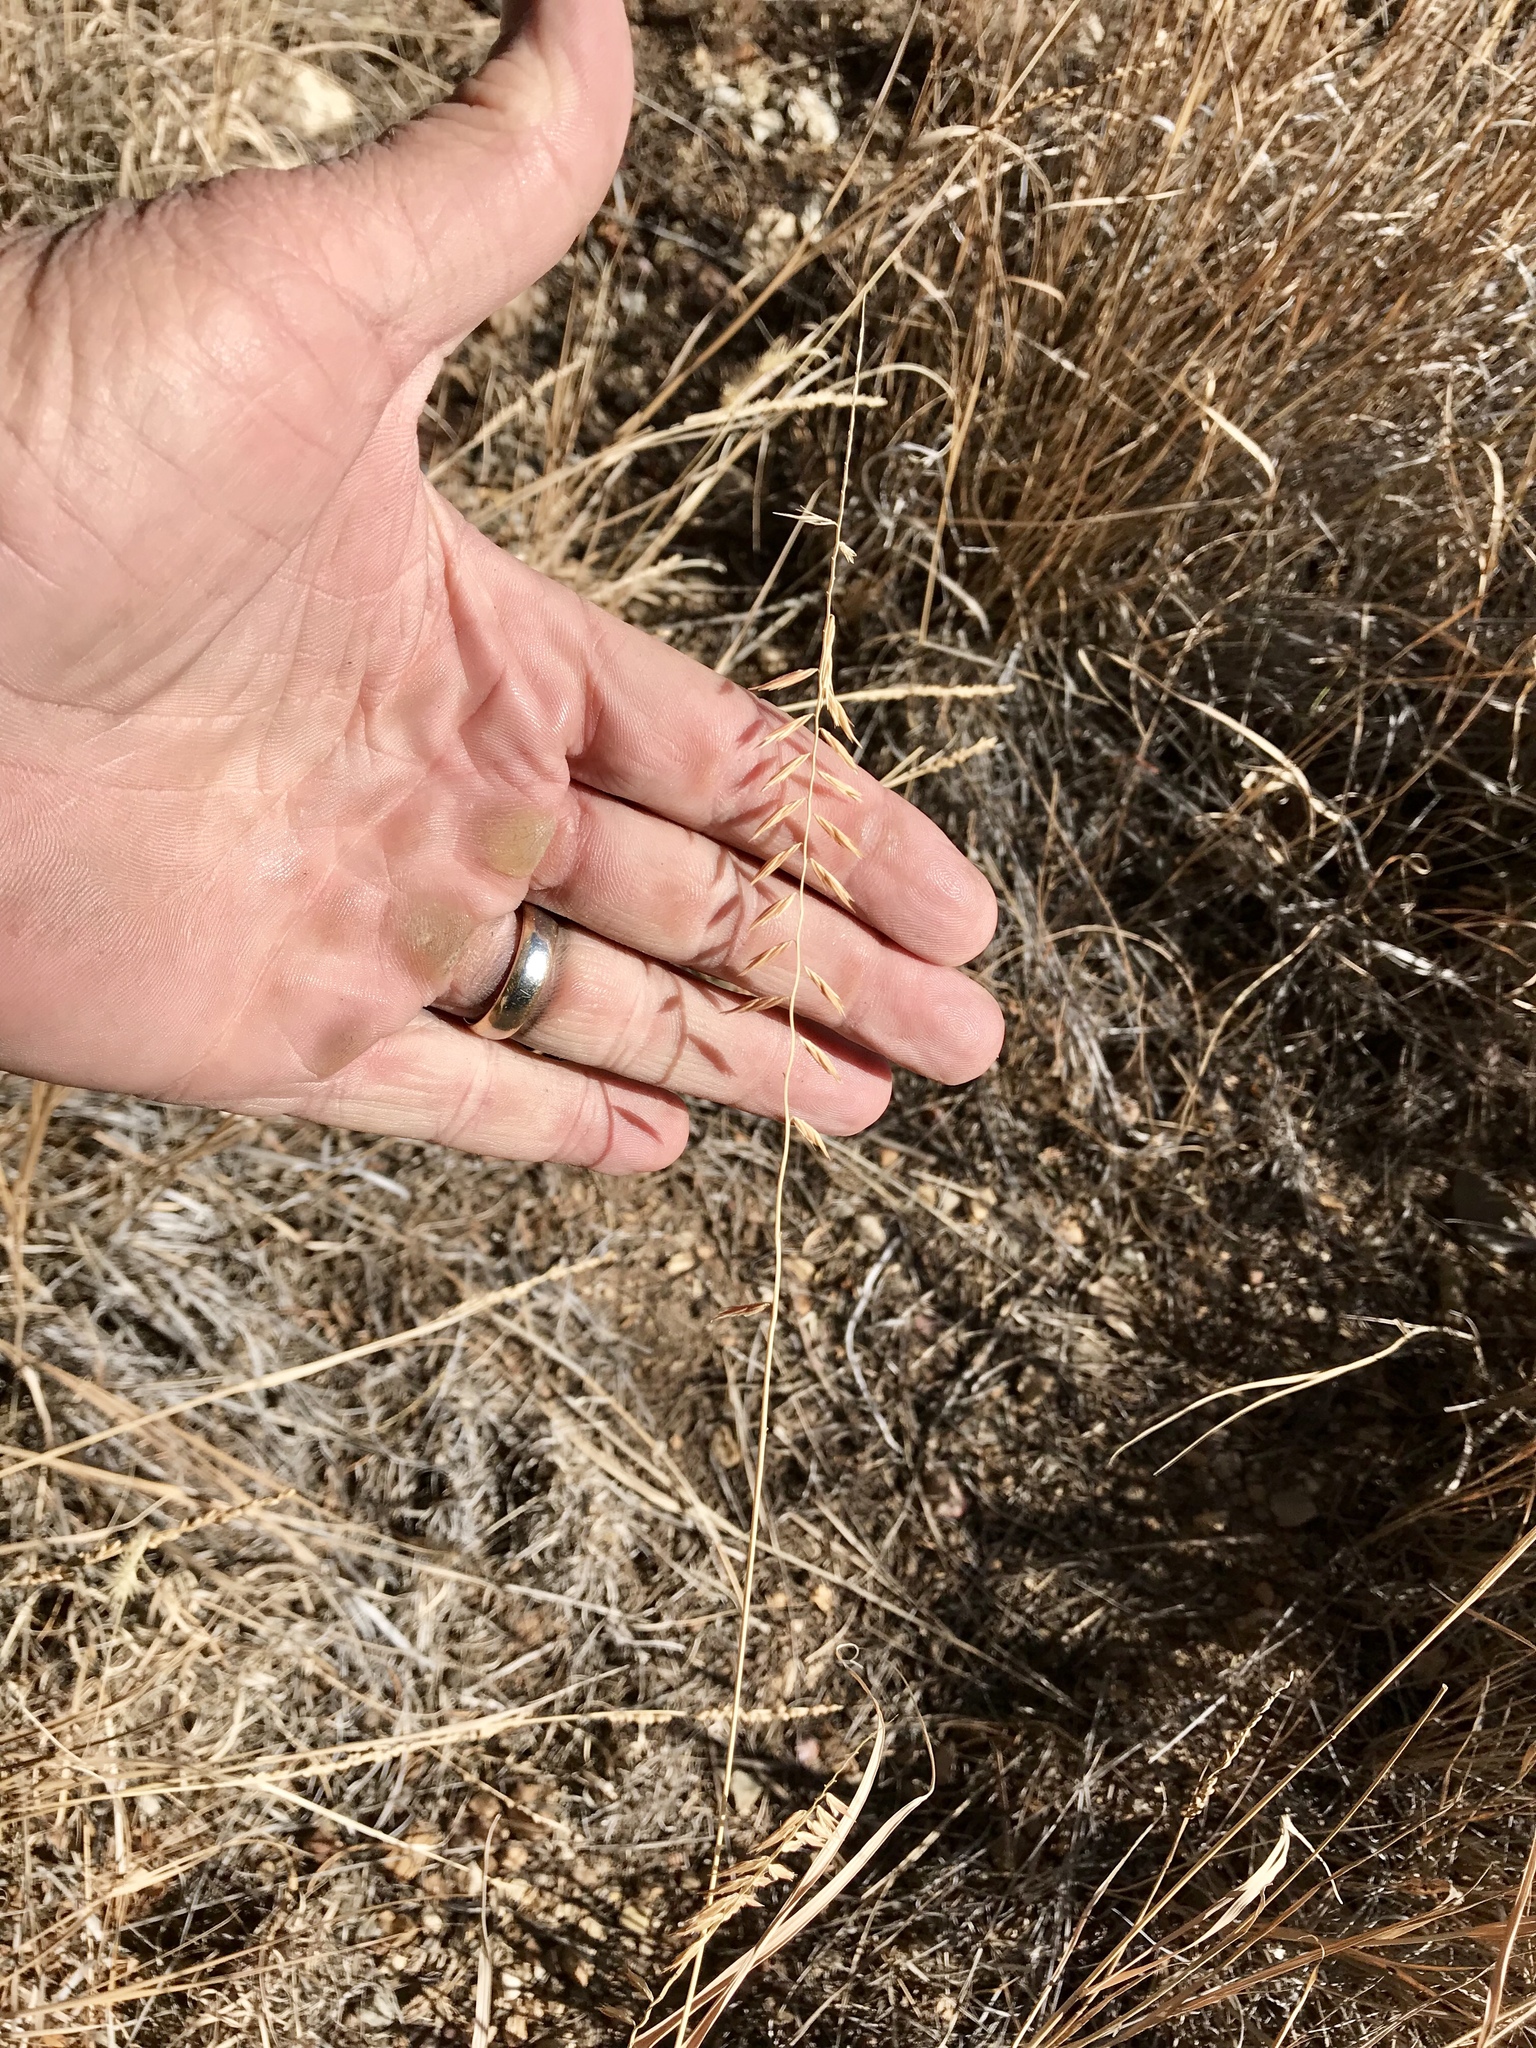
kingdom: Plantae
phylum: Tracheophyta
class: Liliopsida
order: Poales
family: Poaceae
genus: Bouteloua
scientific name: Bouteloua curtipendula
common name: Side-oats grama
